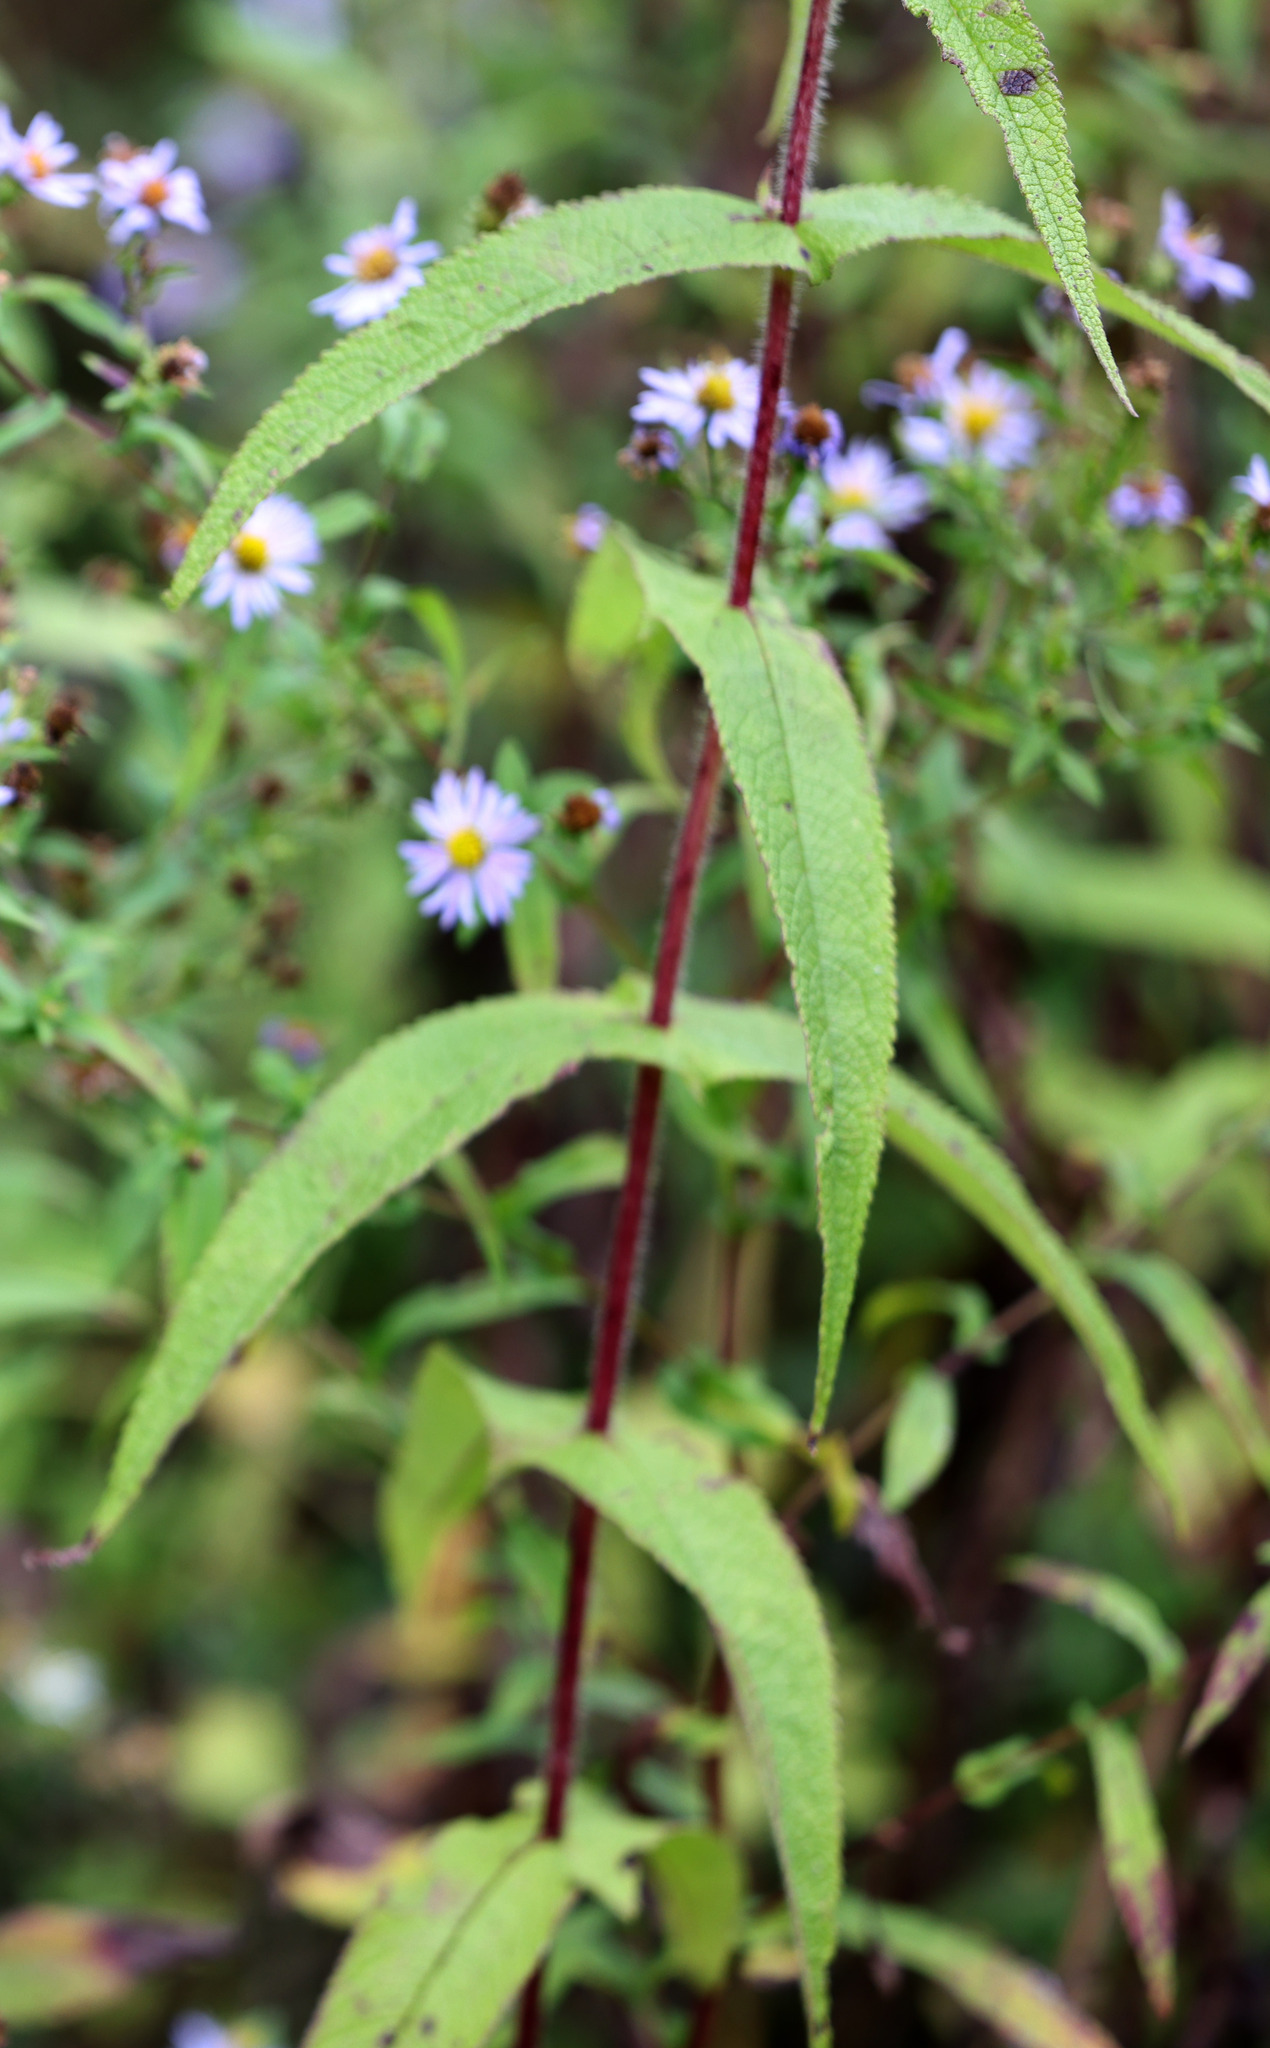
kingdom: Plantae
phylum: Tracheophyta
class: Magnoliopsida
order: Asterales
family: Asteraceae
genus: Eupatorium
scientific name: Eupatorium perfoliatum
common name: Boneset
